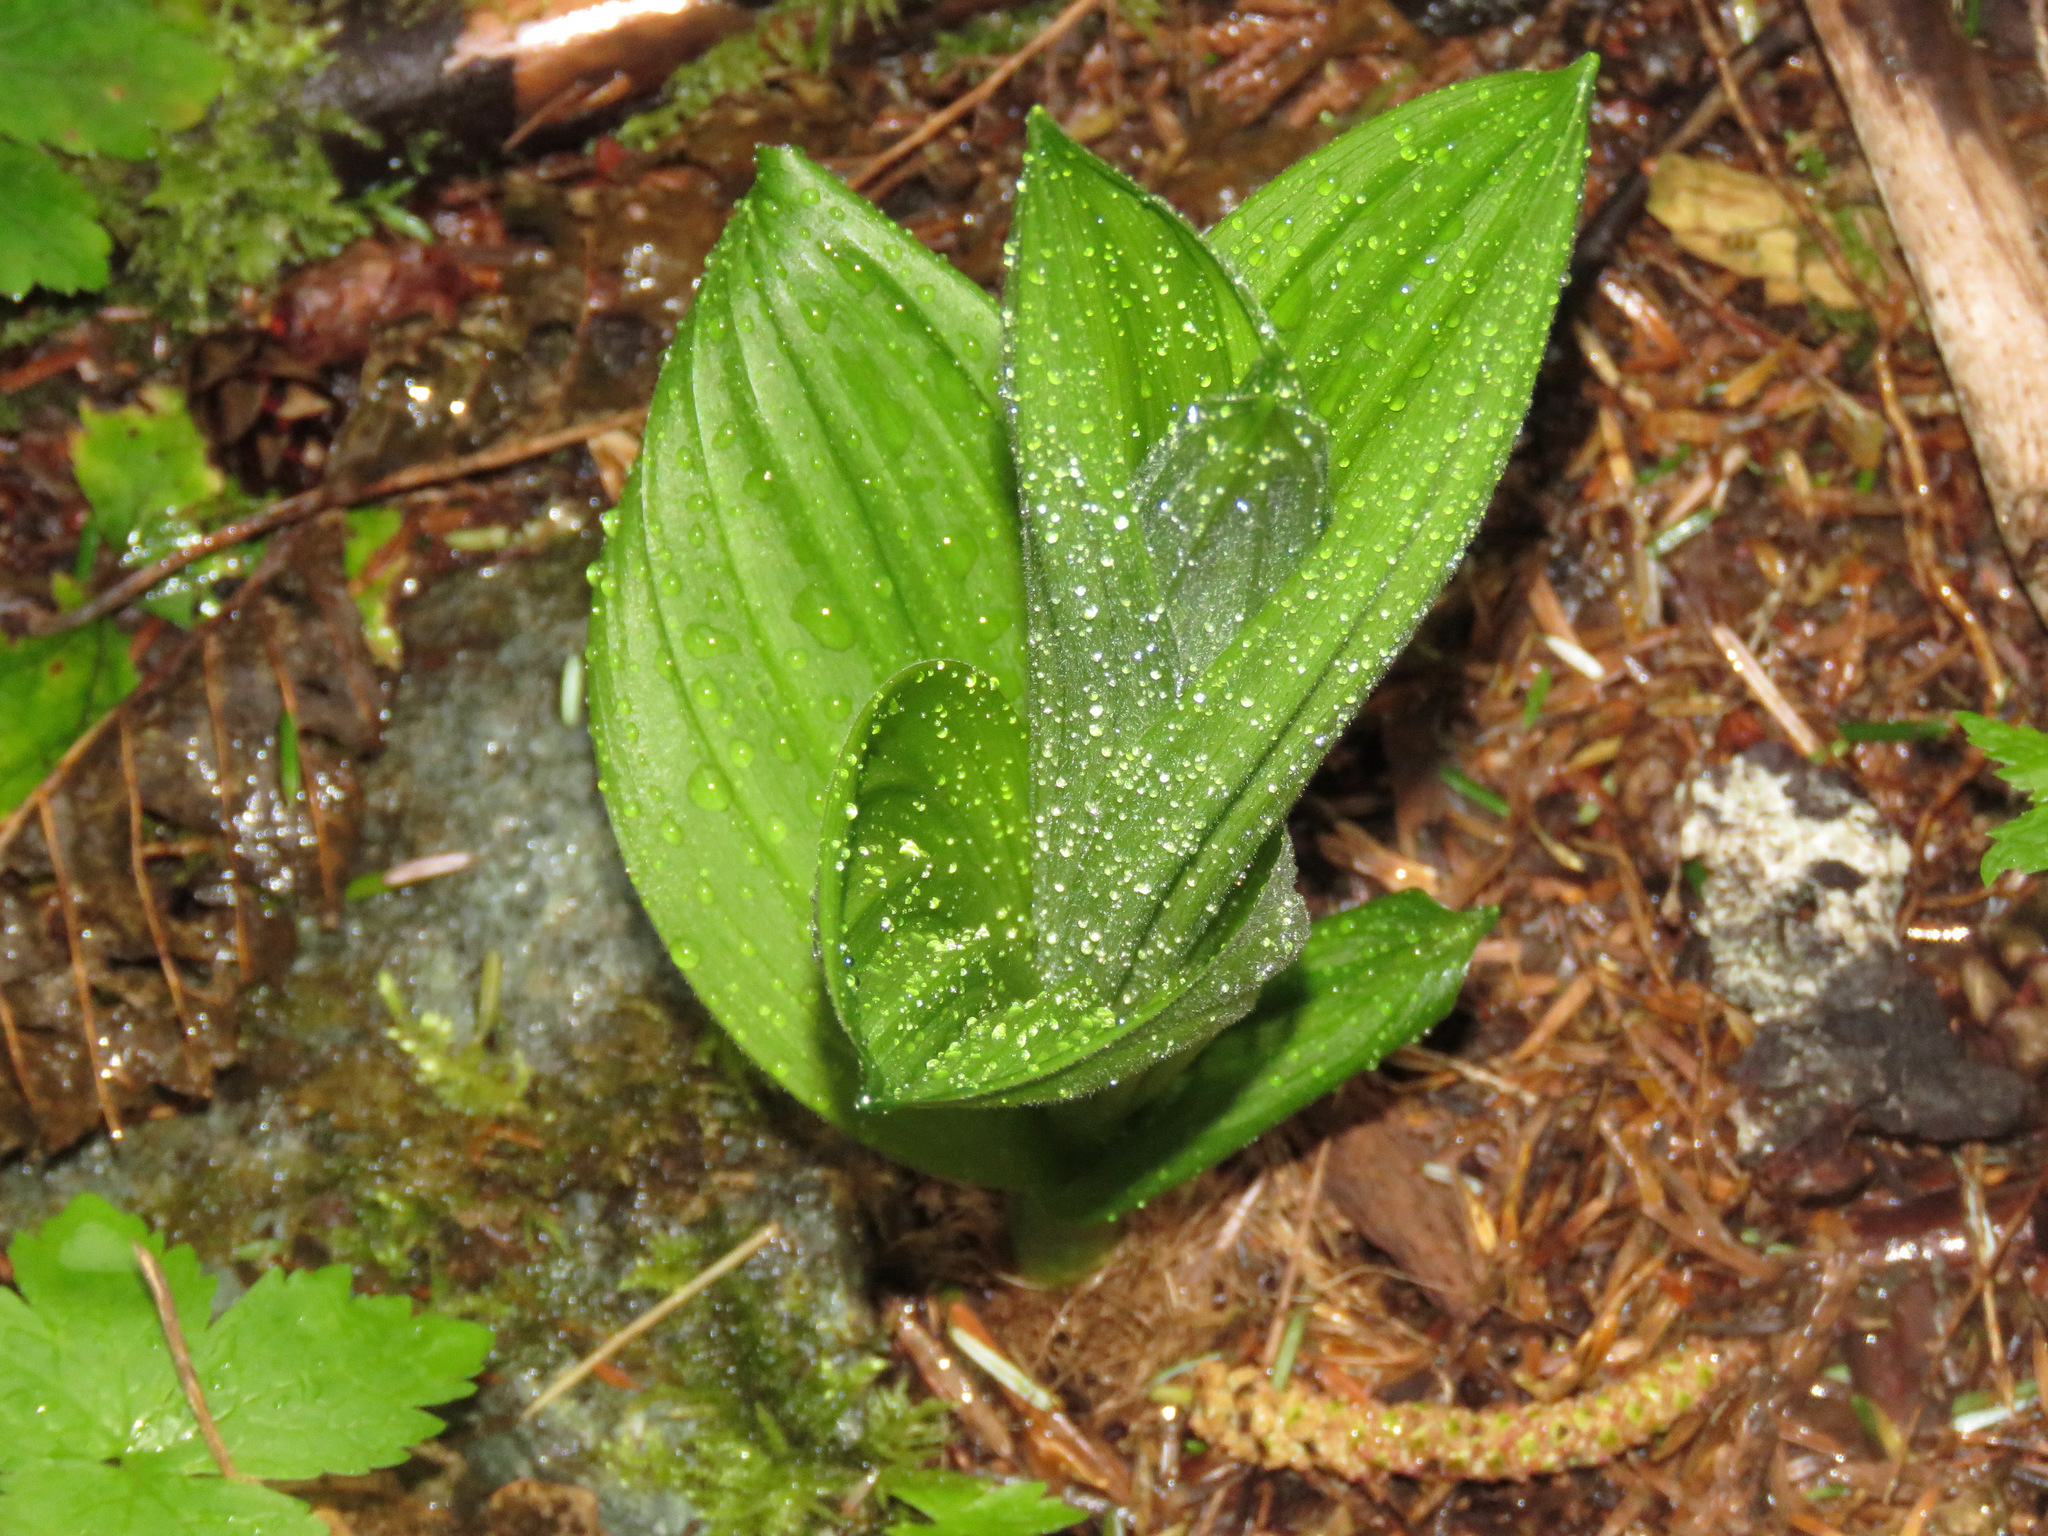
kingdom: Plantae
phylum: Tracheophyta
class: Liliopsida
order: Liliales
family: Melanthiaceae
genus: Veratrum
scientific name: Veratrum viride
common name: American false hellebore
